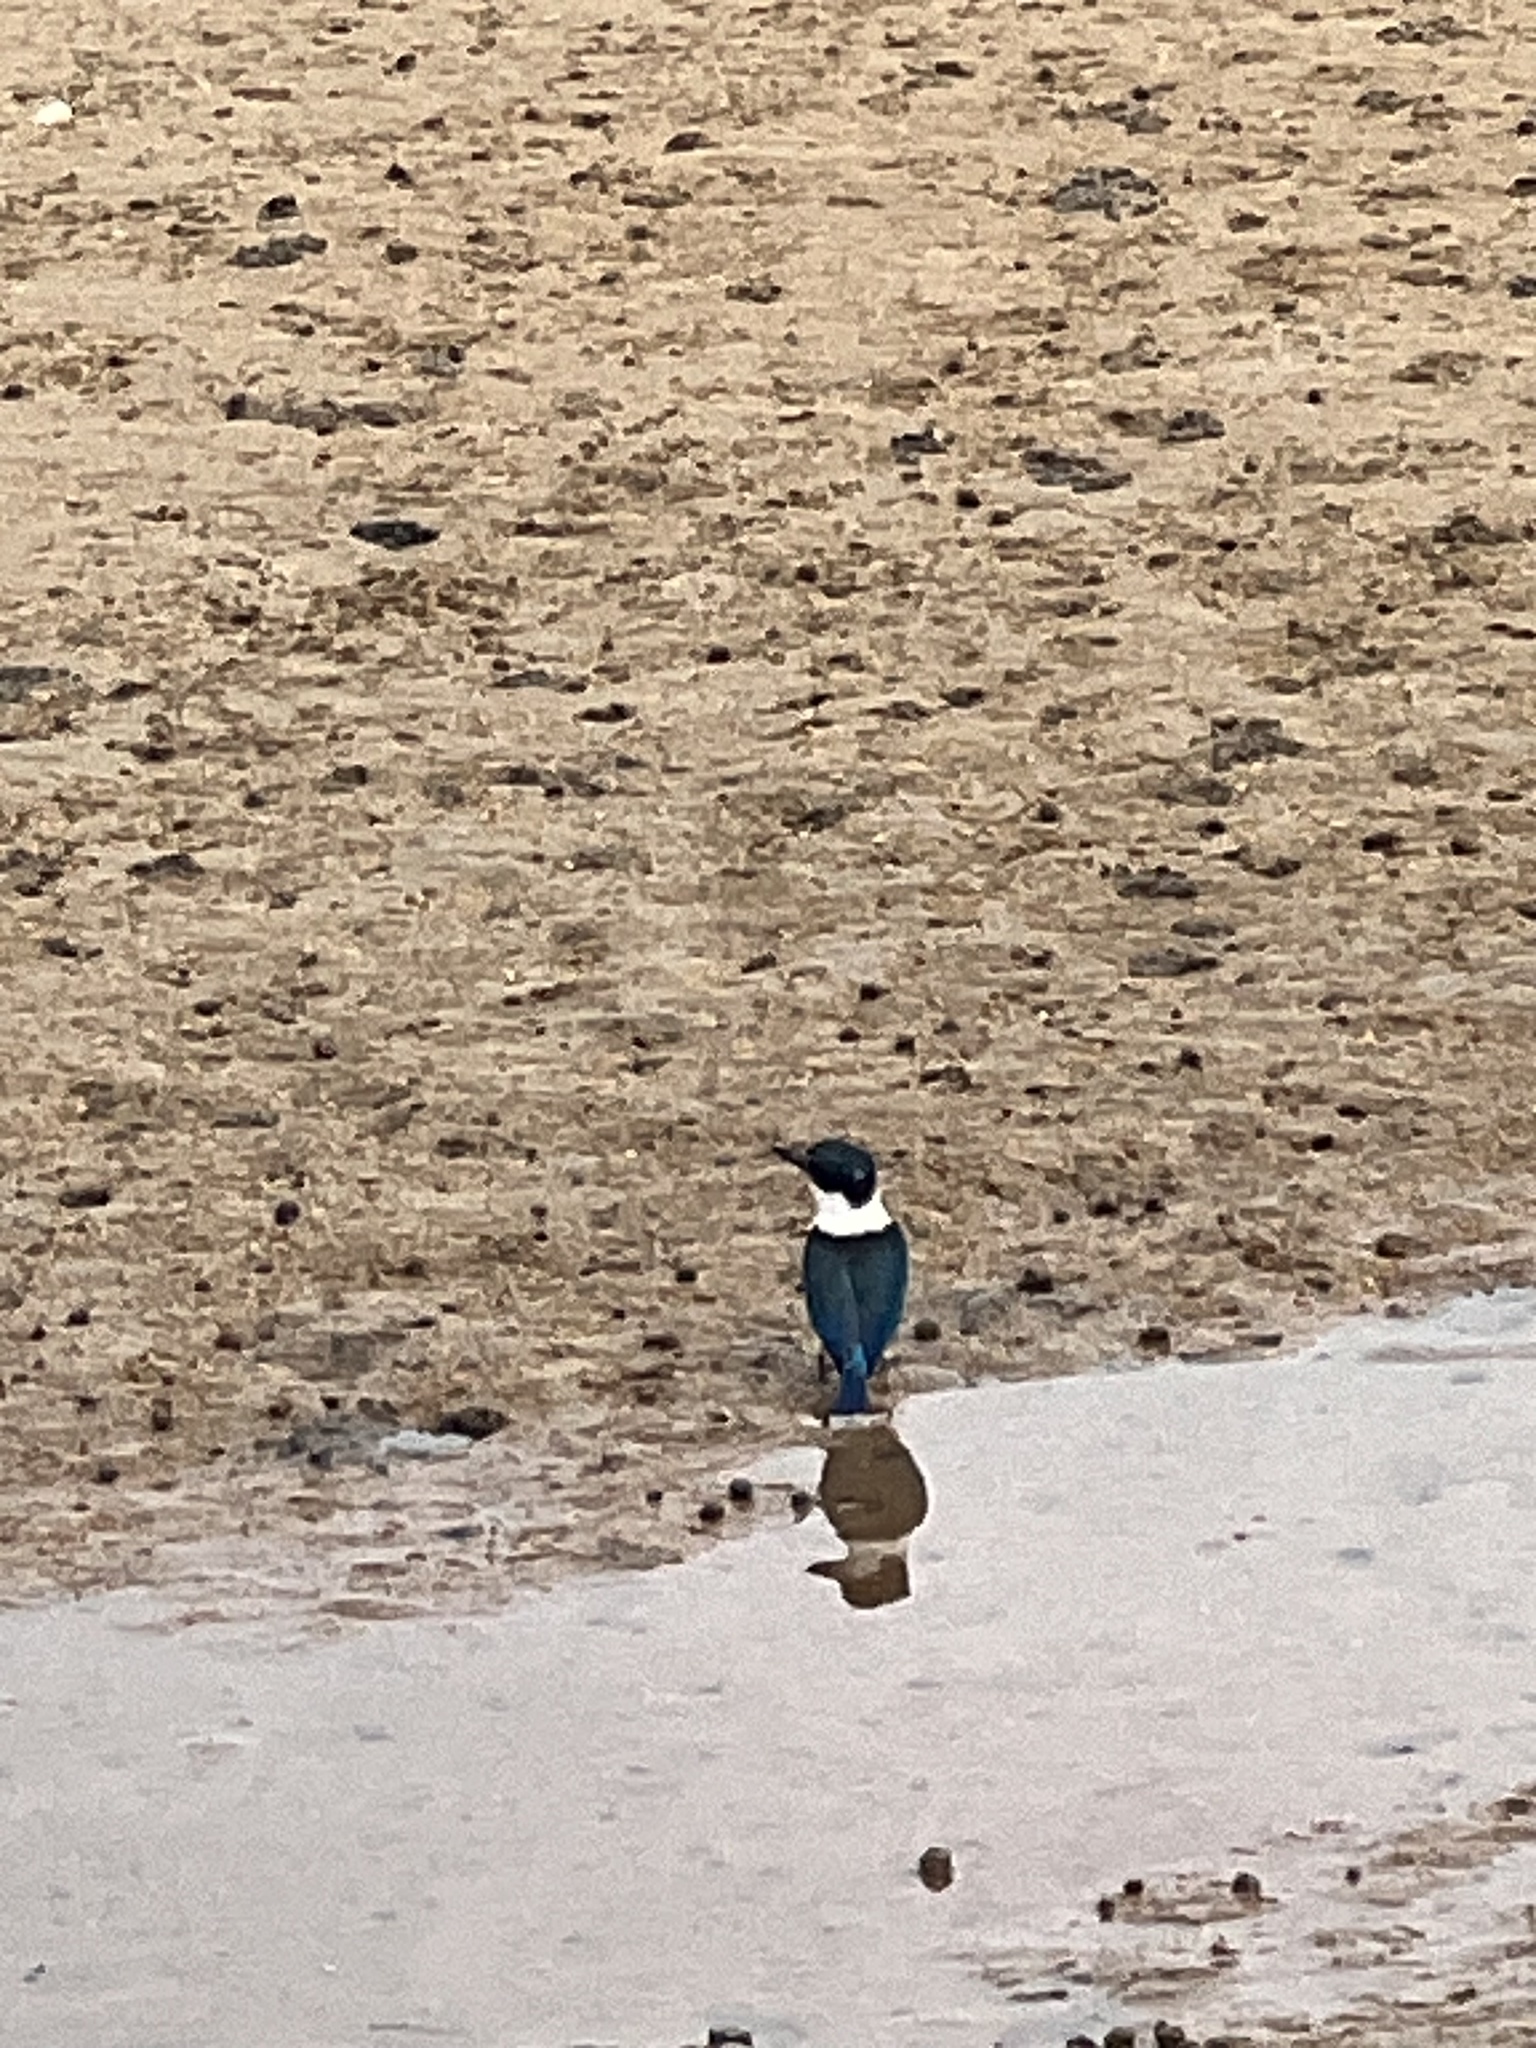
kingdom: Animalia
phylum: Chordata
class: Aves
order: Coraciiformes
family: Alcedinidae
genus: Todiramphus
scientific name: Todiramphus sanctus
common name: Sacred kingfisher
